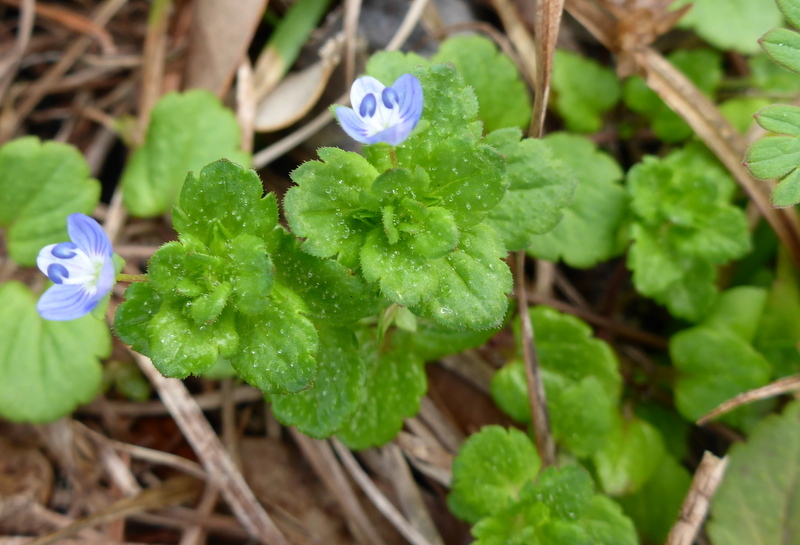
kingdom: Plantae
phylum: Tracheophyta
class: Magnoliopsida
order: Lamiales
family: Plantaginaceae
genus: Veronica
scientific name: Veronica persica
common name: Common field-speedwell
